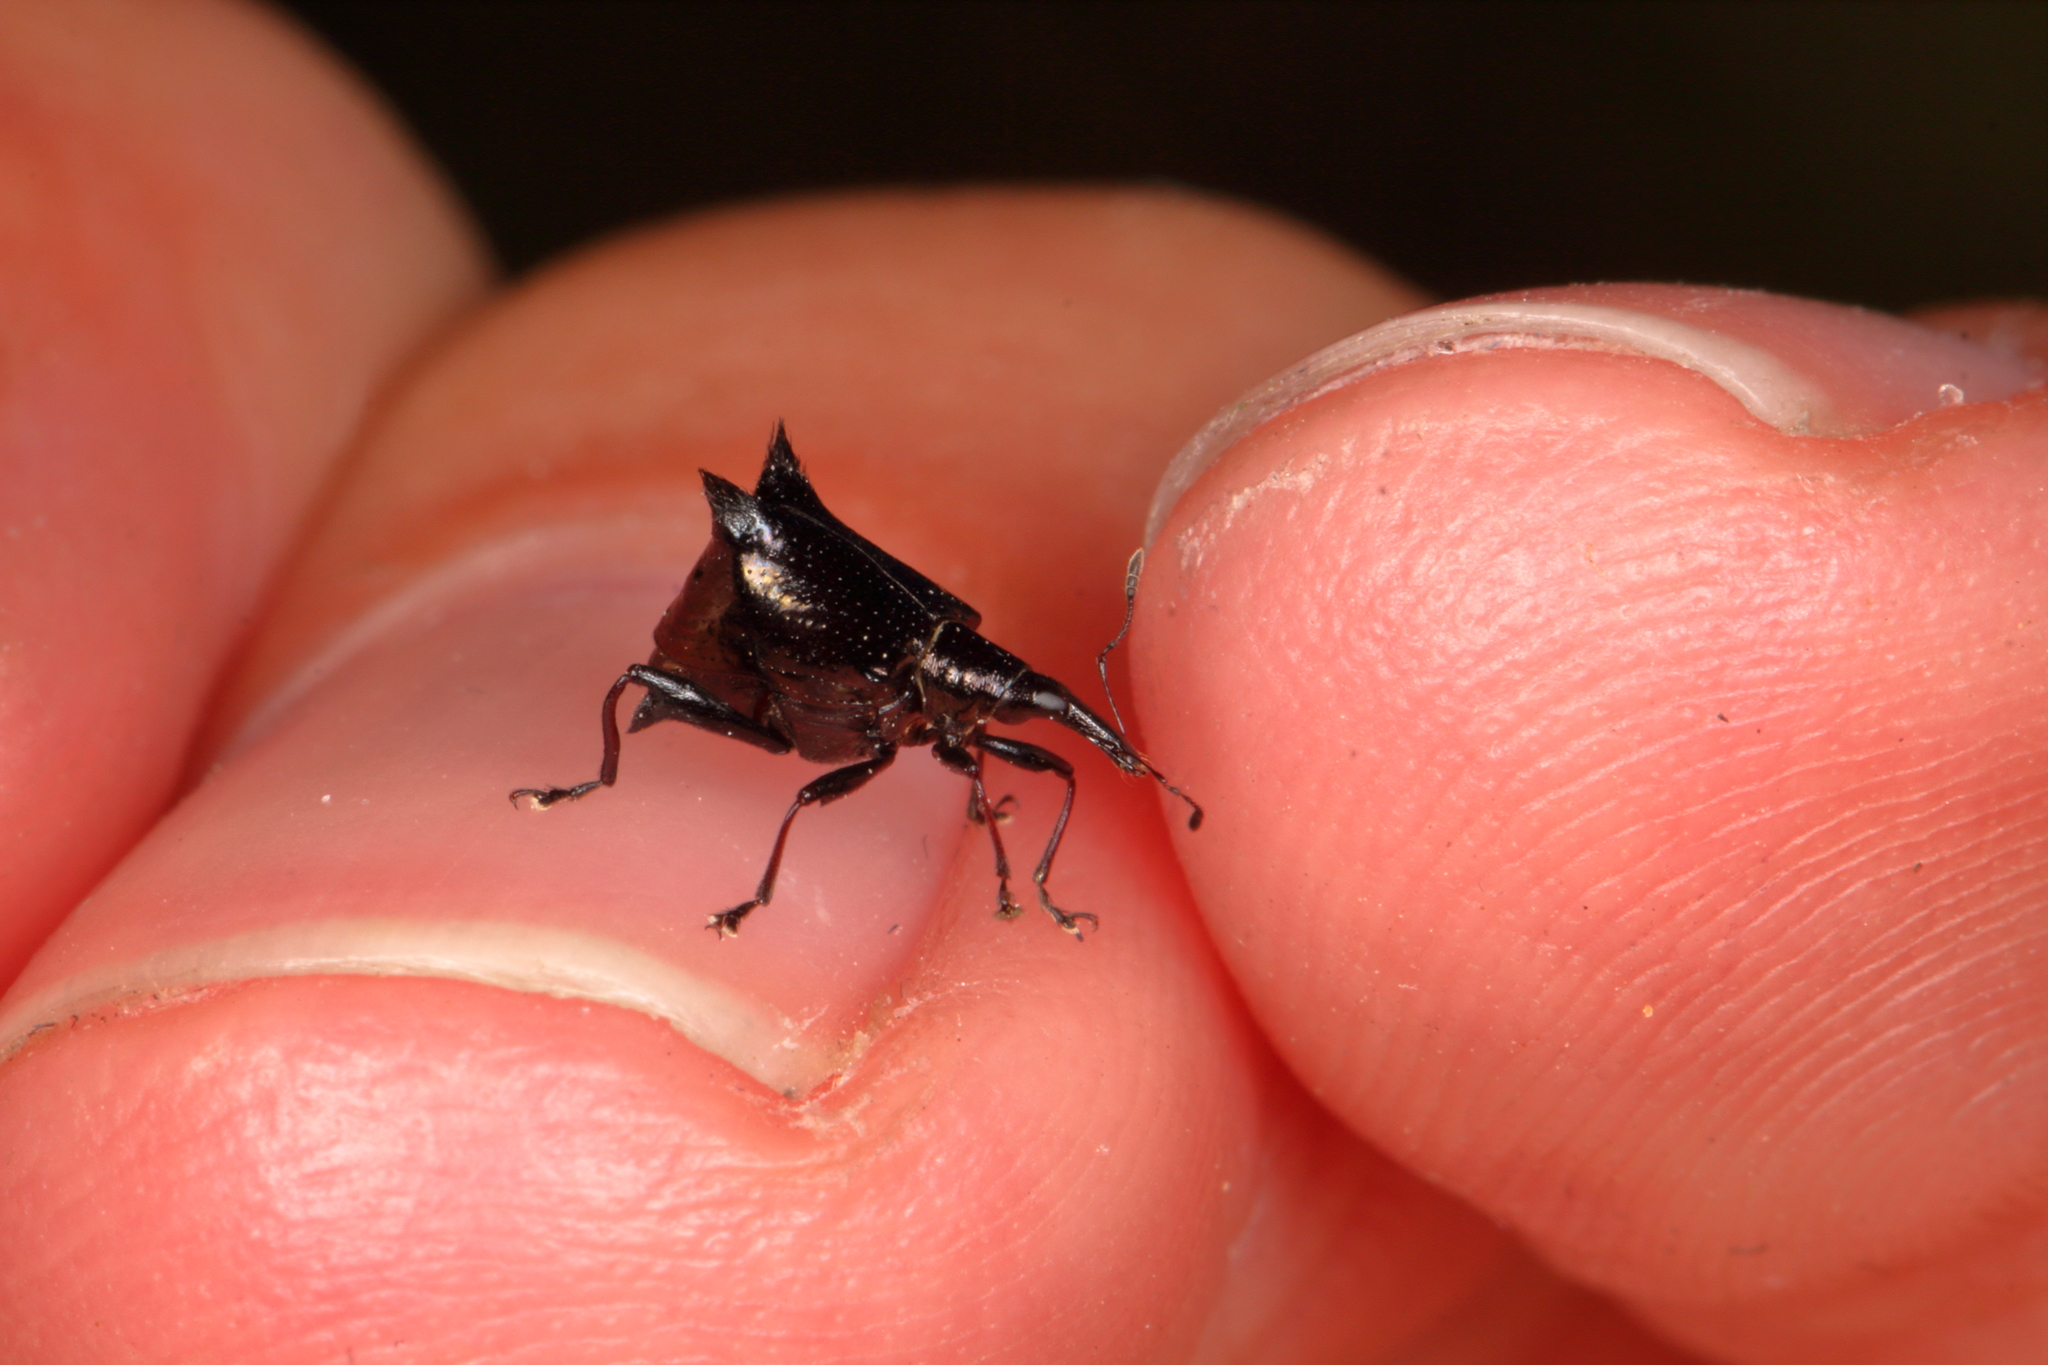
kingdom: Animalia
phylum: Arthropoda
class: Insecta
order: Coleoptera
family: Curculionidae
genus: Scolopterus
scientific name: Scolopterus penicillatus
